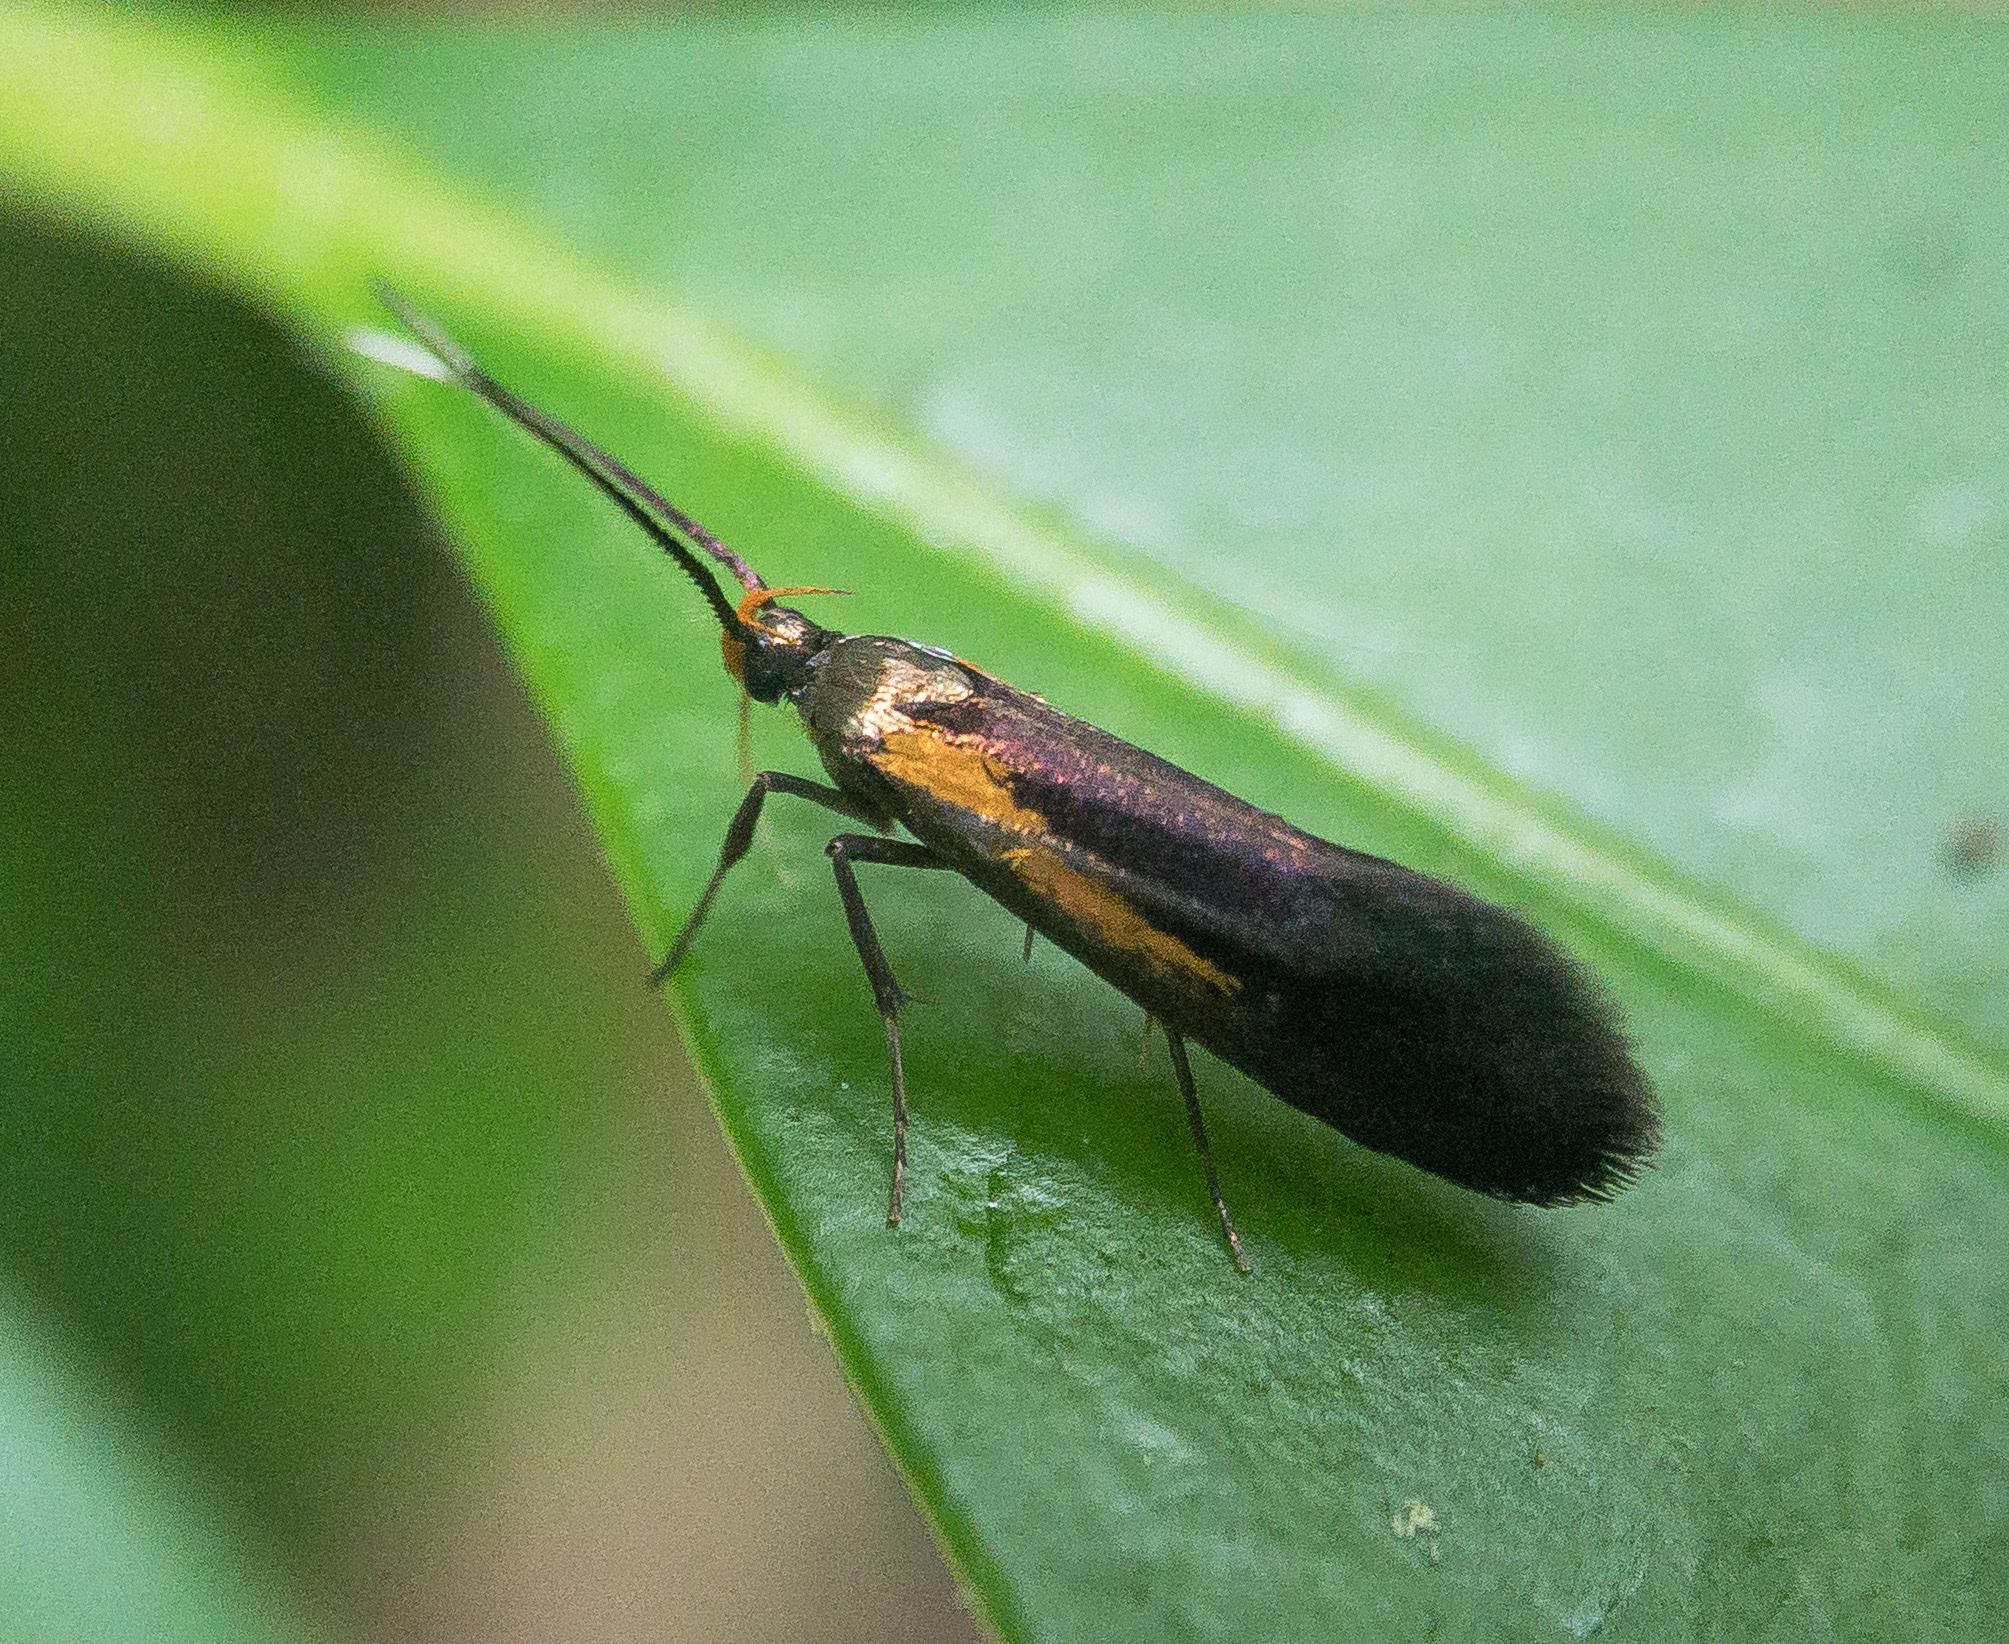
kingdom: Animalia
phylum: Arthropoda
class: Insecta
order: Lepidoptera
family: Oecophoridae
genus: Mathildana
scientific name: Mathildana newmanella
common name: Newman's mathildana moth
